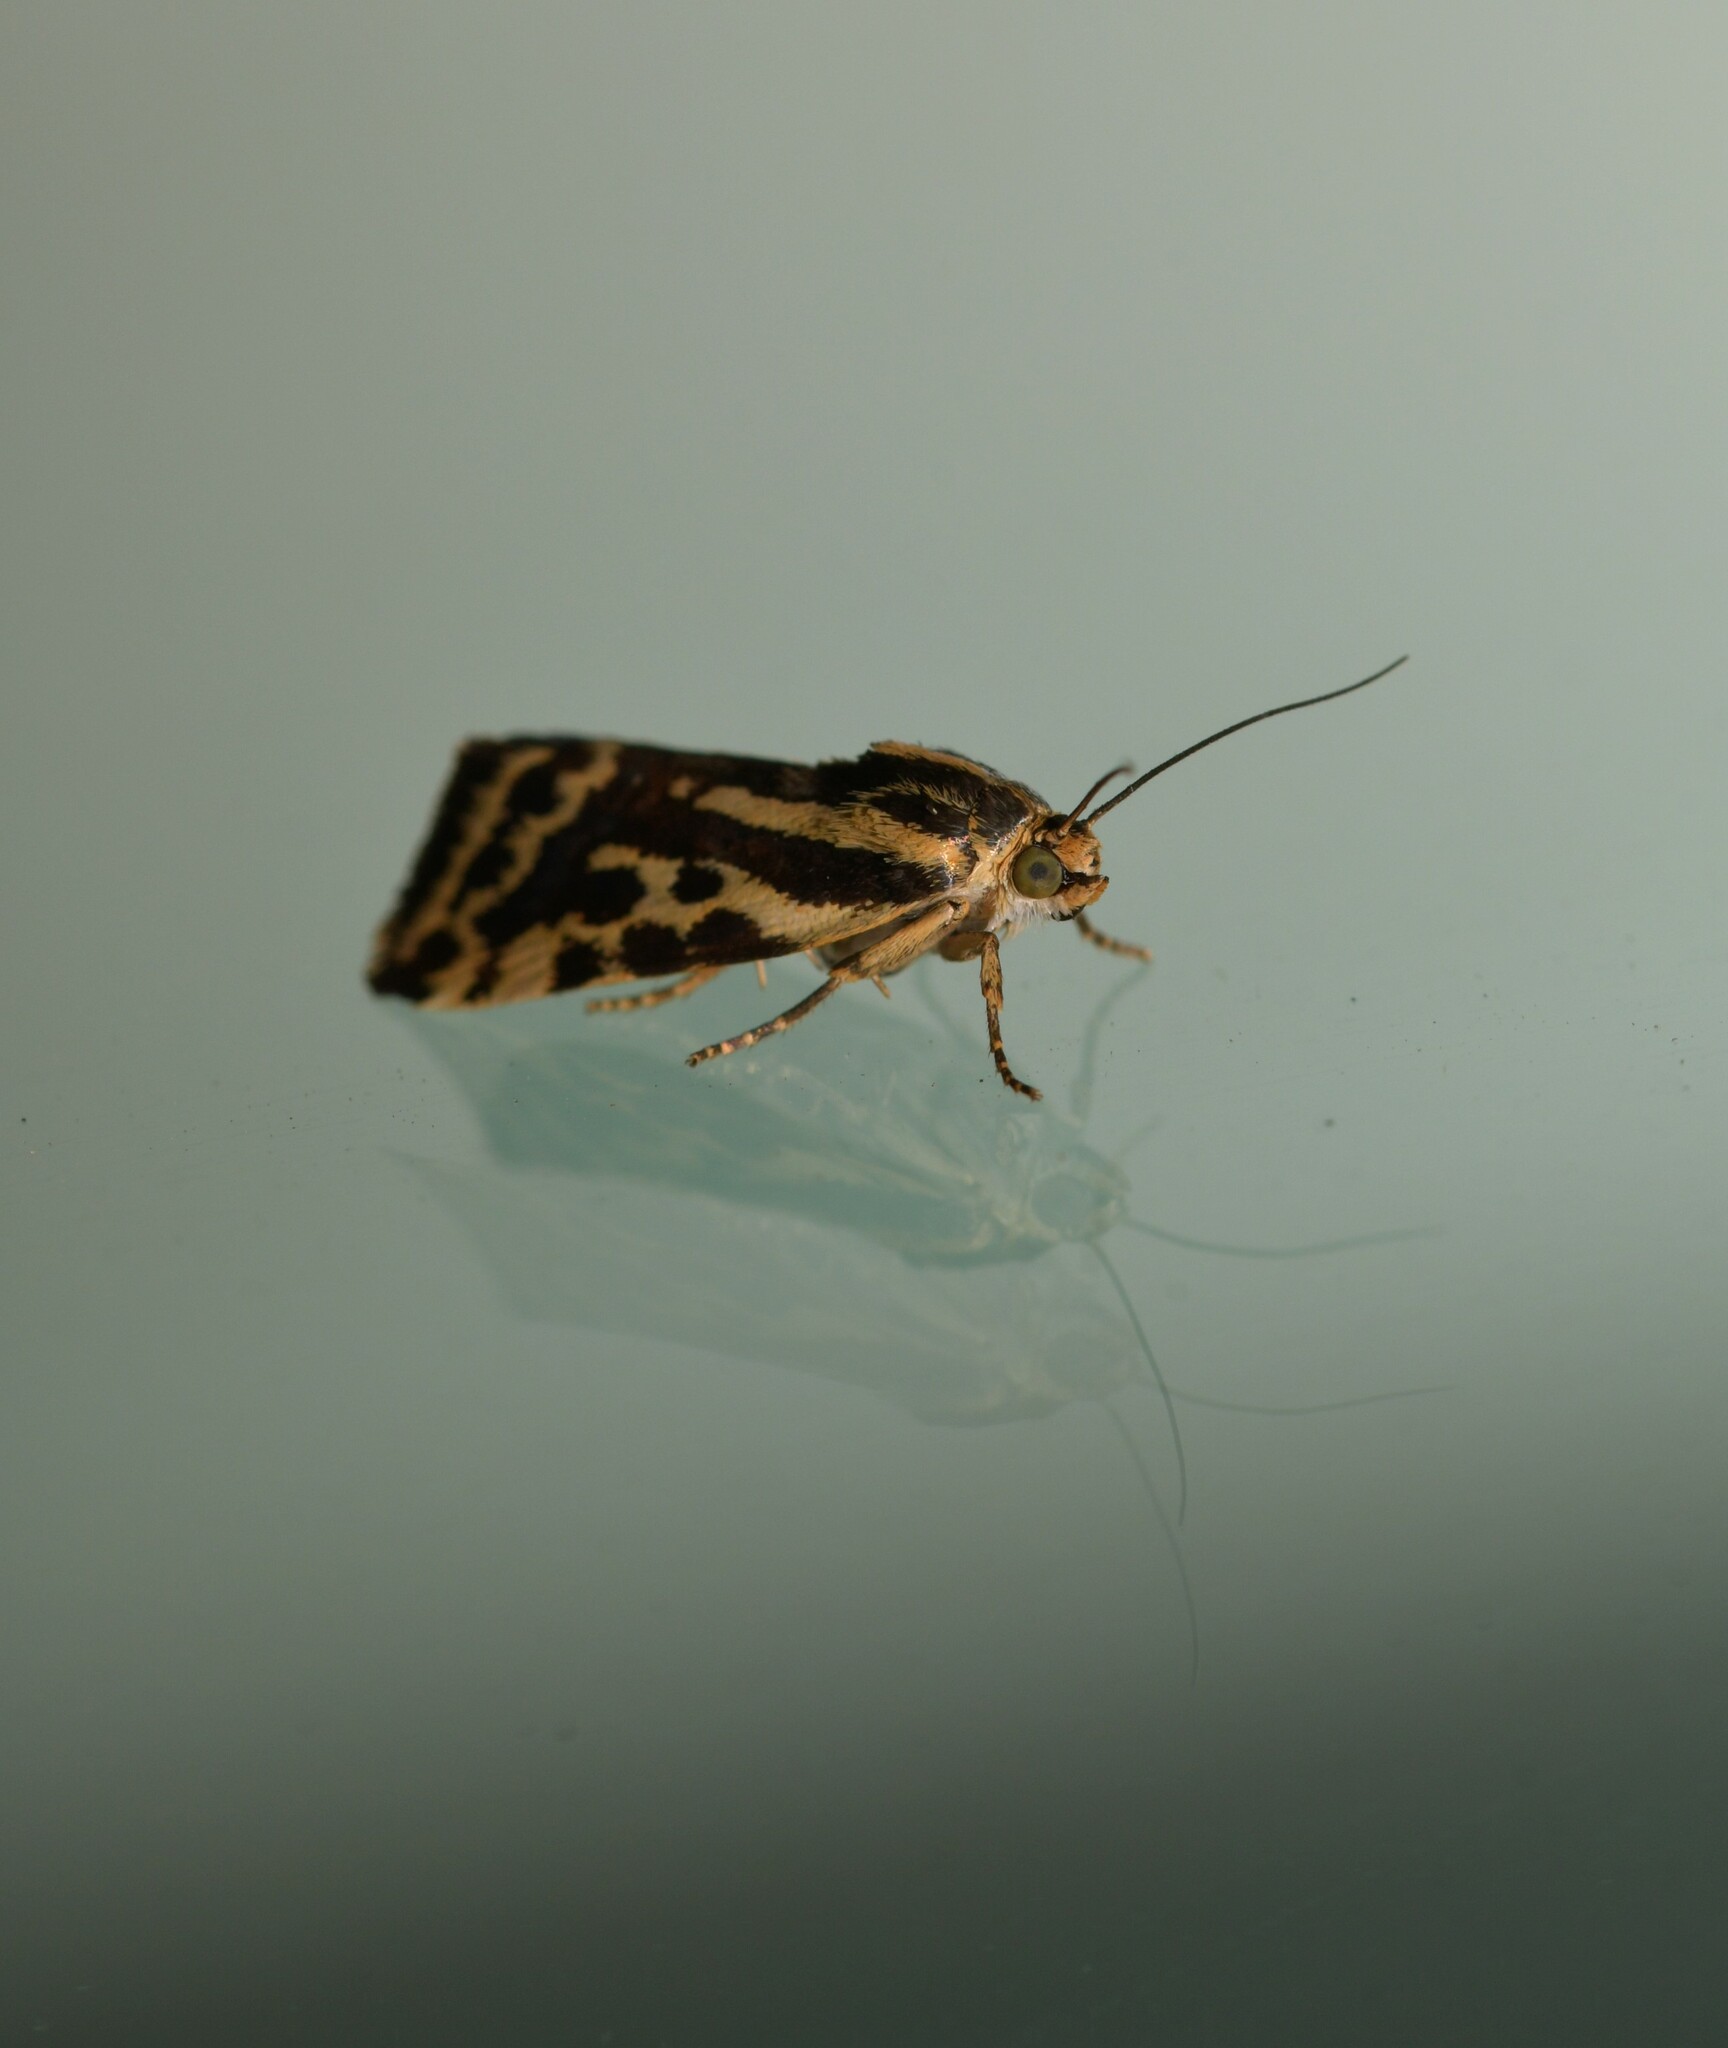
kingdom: Animalia
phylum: Arthropoda
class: Insecta
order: Lepidoptera
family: Noctuidae
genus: Acontia
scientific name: Acontia trabealis
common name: Spotted sulphur
